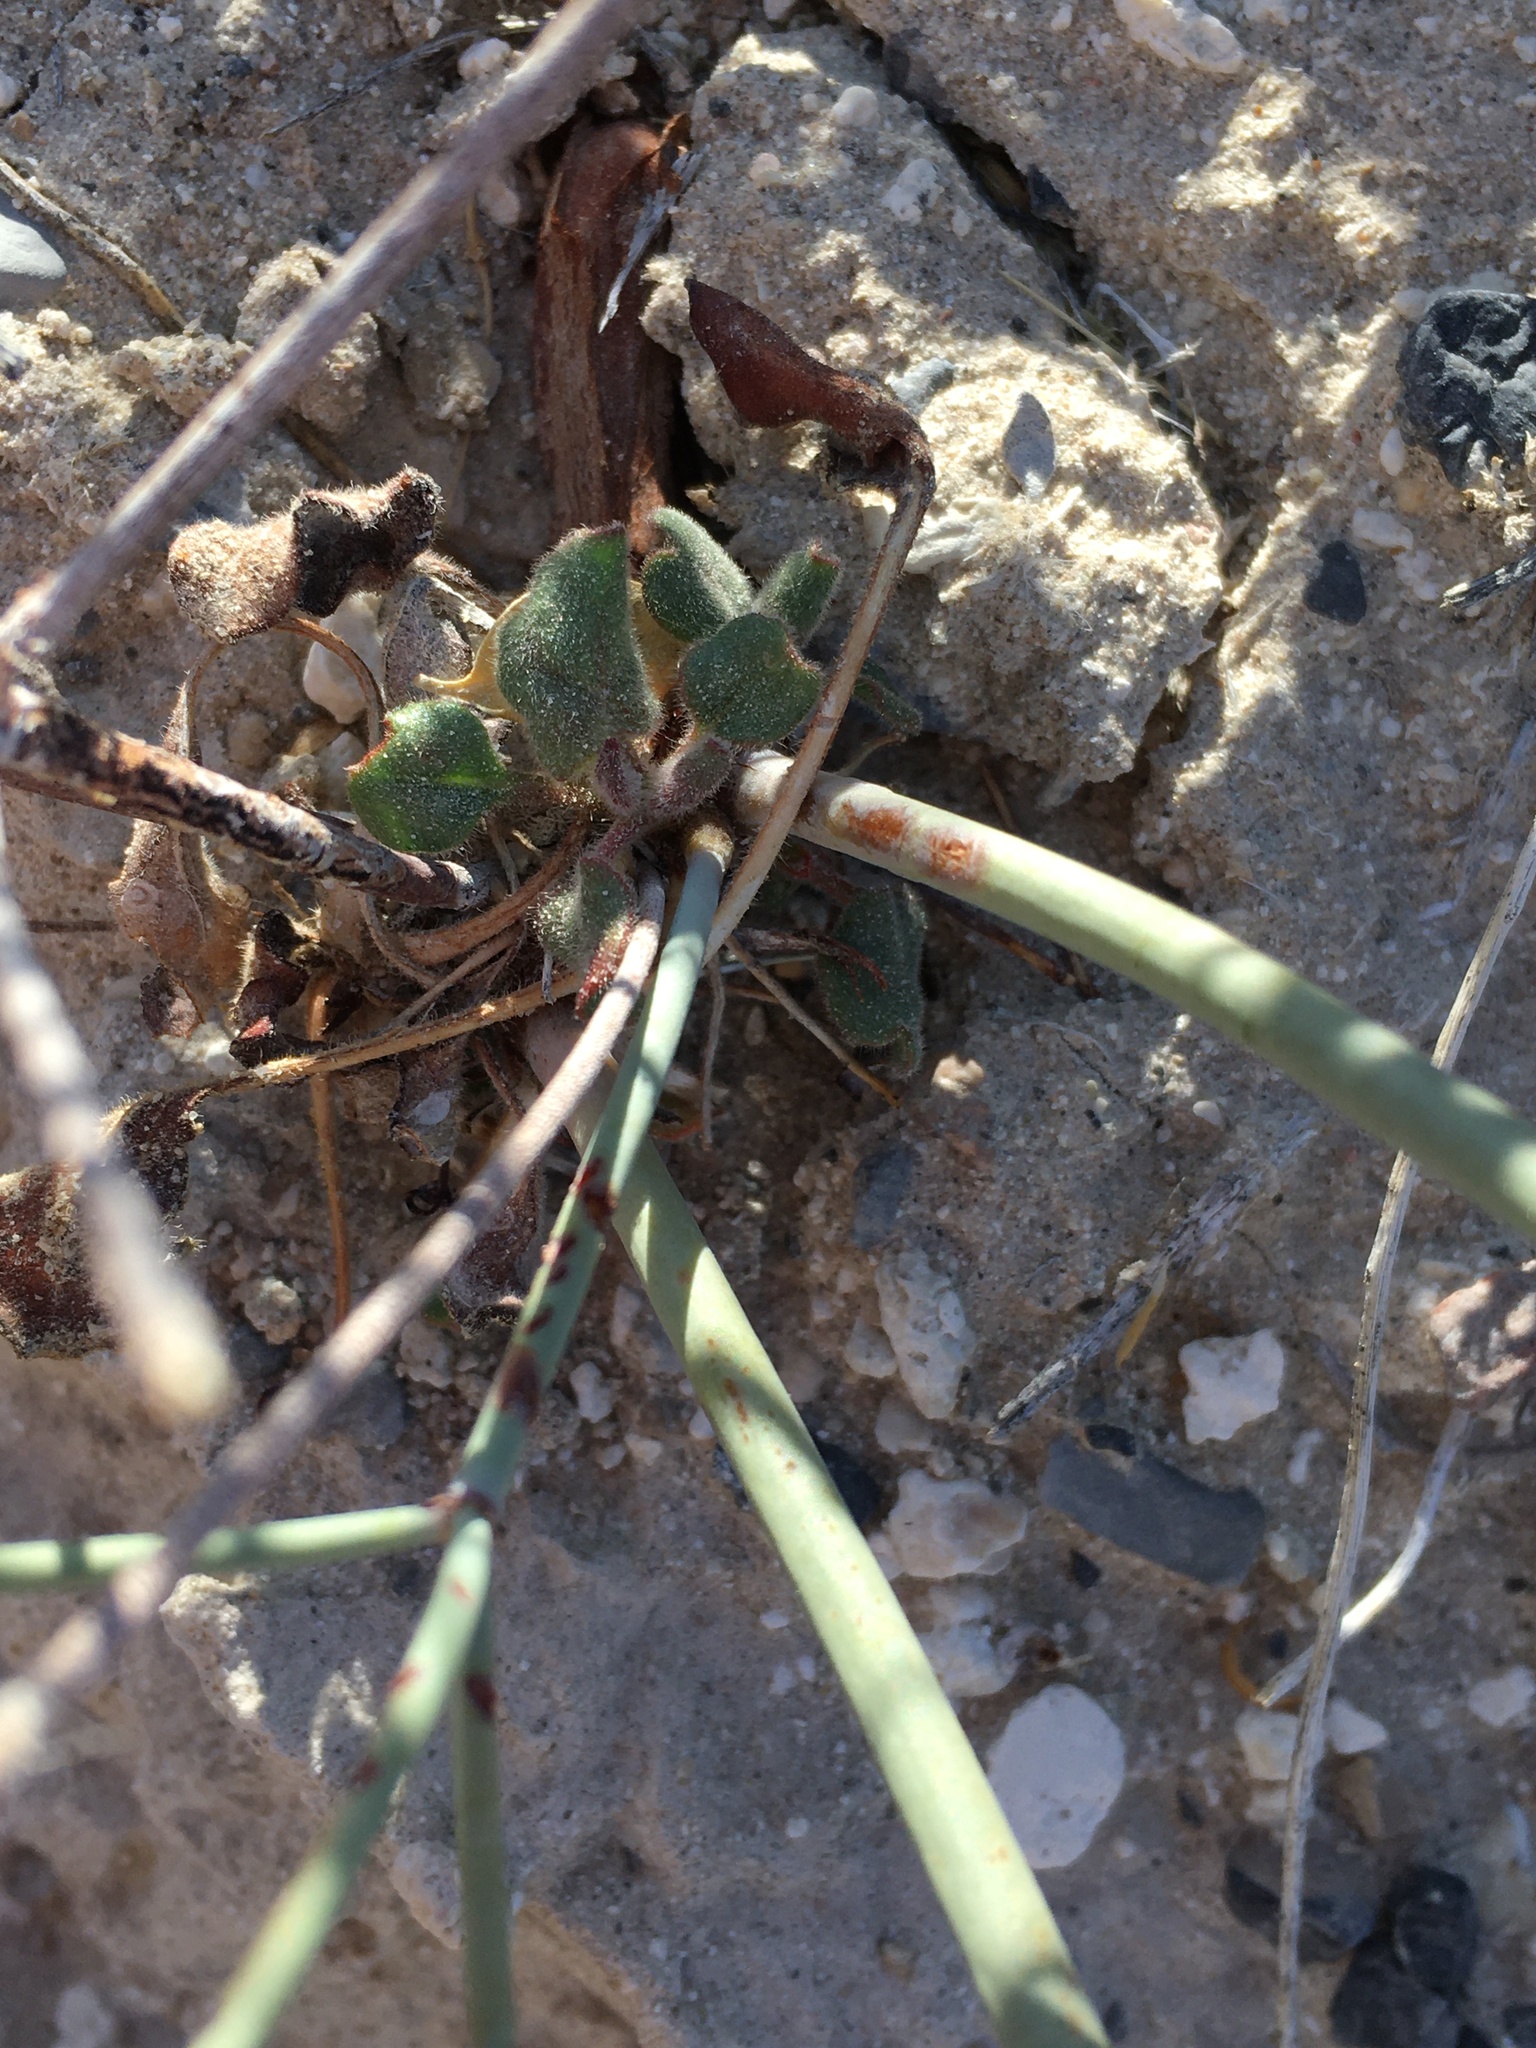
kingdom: Plantae
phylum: Tracheophyta
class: Magnoliopsida
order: Caryophyllales
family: Polygonaceae
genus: Eriogonum
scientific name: Eriogonum inflatum
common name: Desert trumpet
